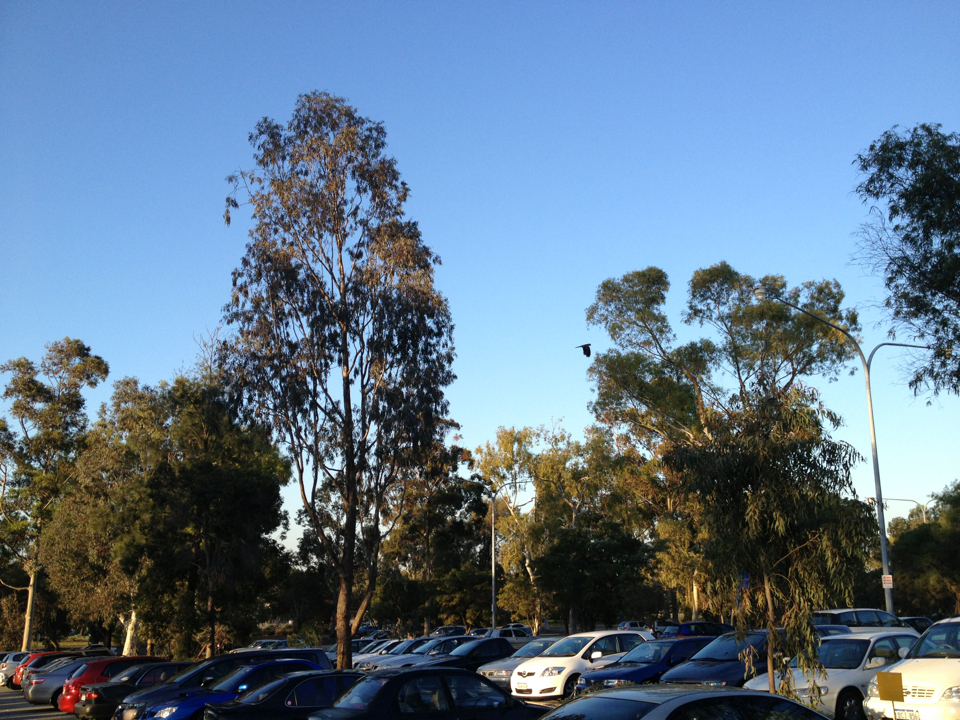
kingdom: Animalia
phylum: Chordata
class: Aves
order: Psittaciformes
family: Psittacidae
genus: Calyptorhynchus
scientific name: Calyptorhynchus banksii
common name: Red-tailed black cockatoo
